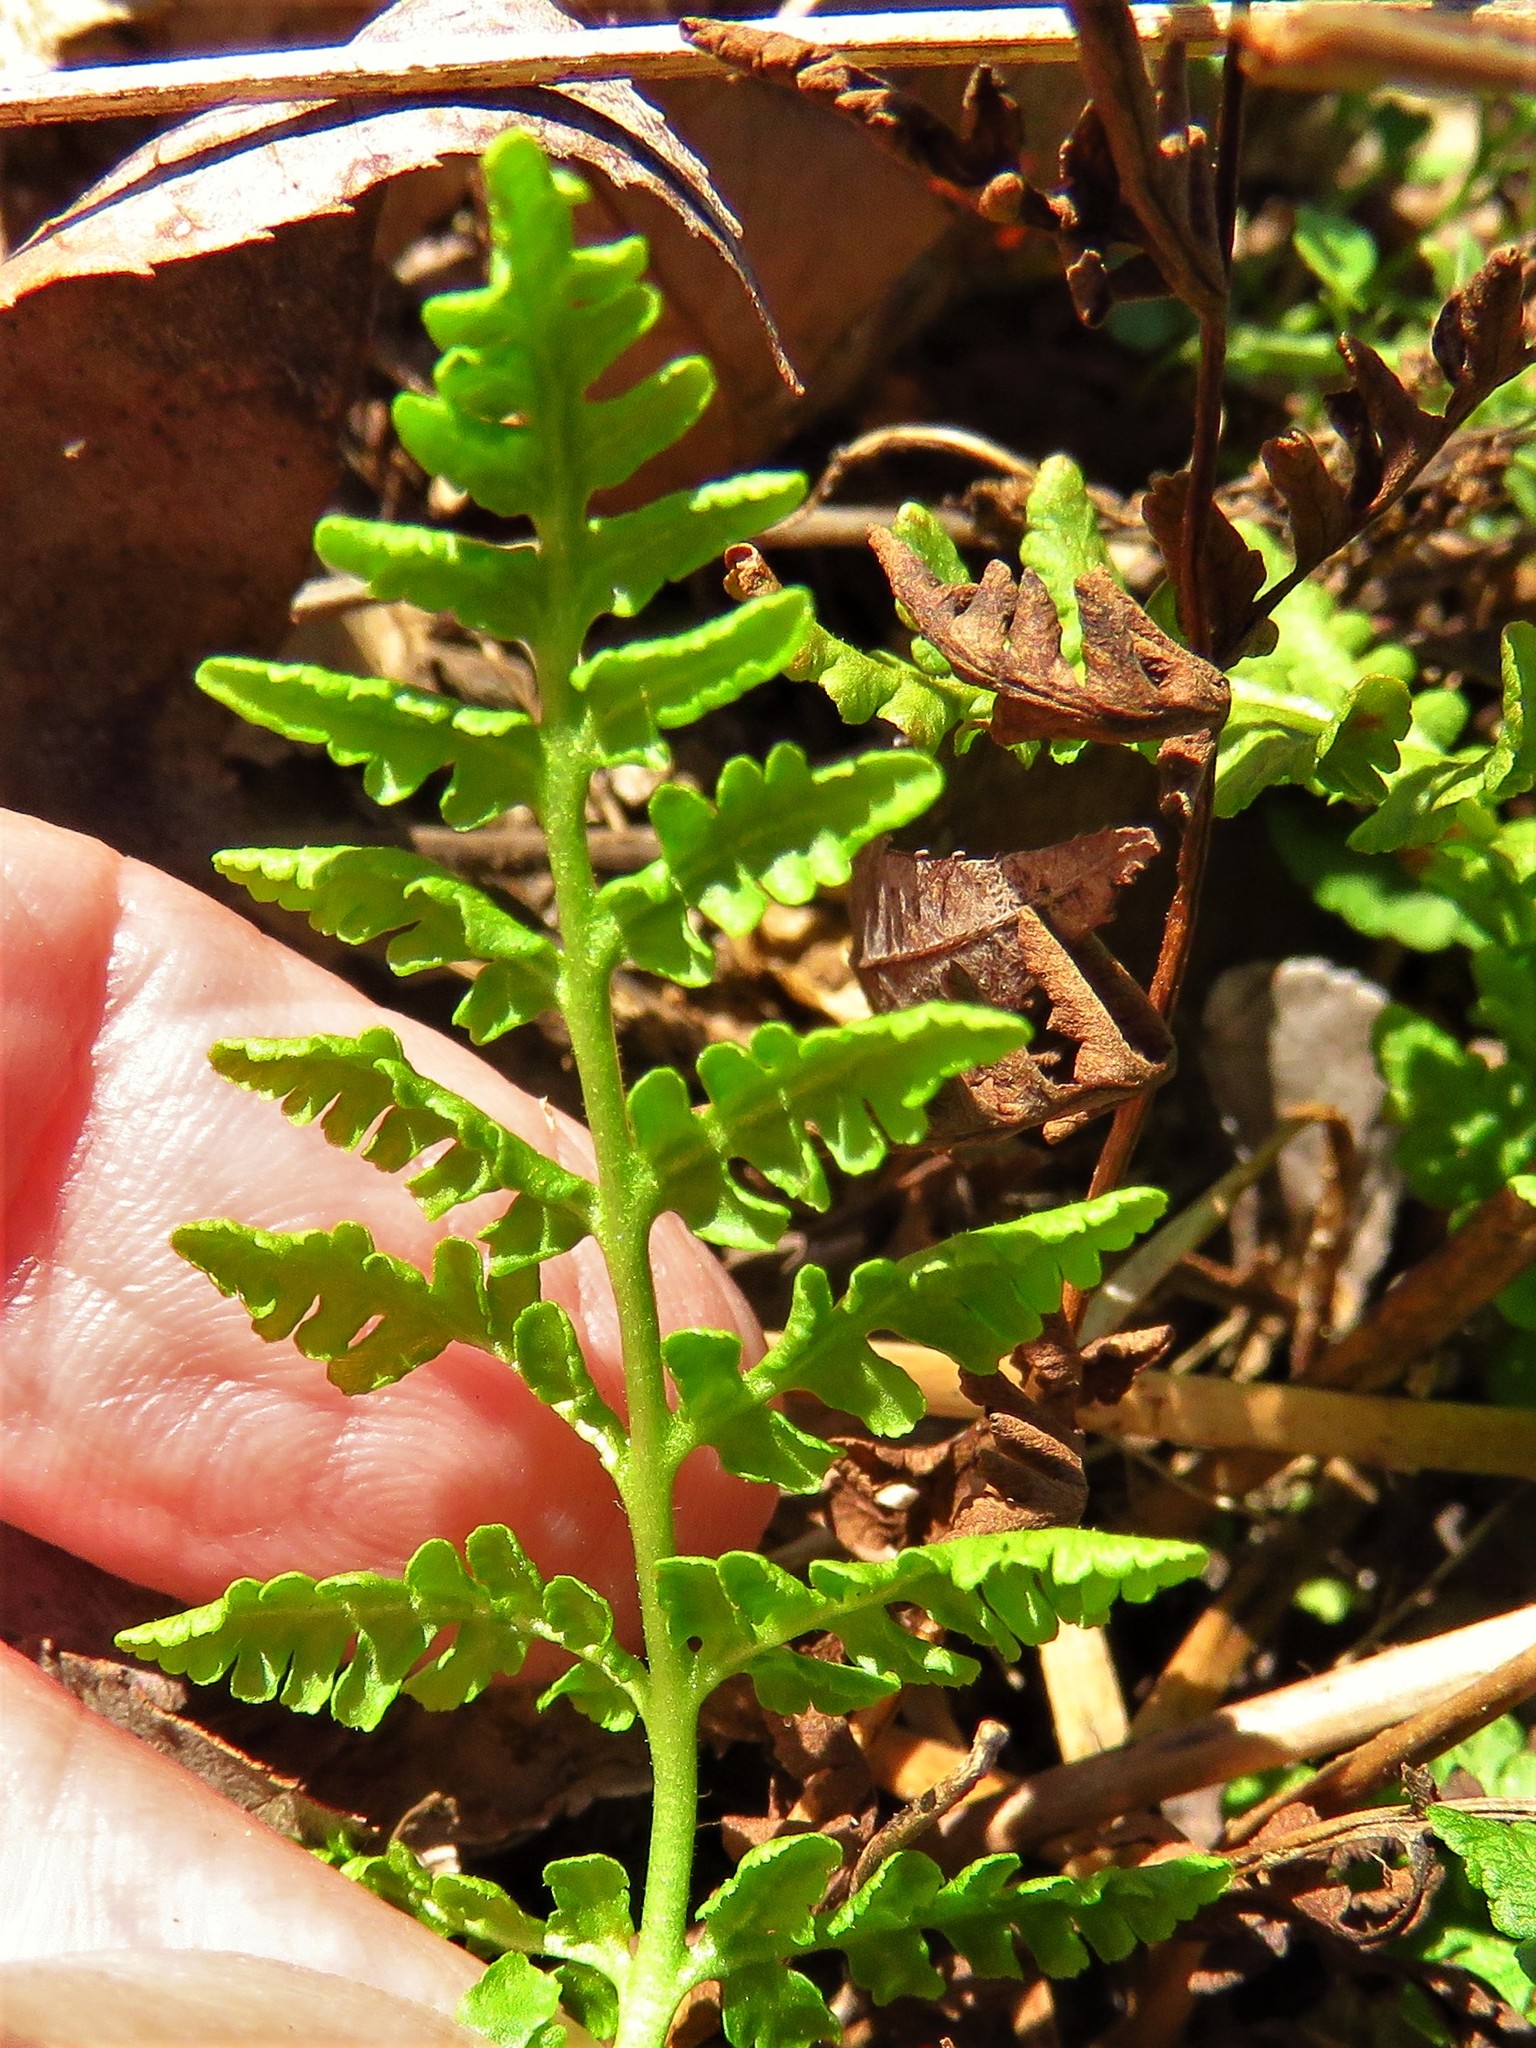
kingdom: Plantae
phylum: Tracheophyta
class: Polypodiopsida
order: Polypodiales
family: Woodsiaceae
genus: Physematium
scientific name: Physematium obtusum
